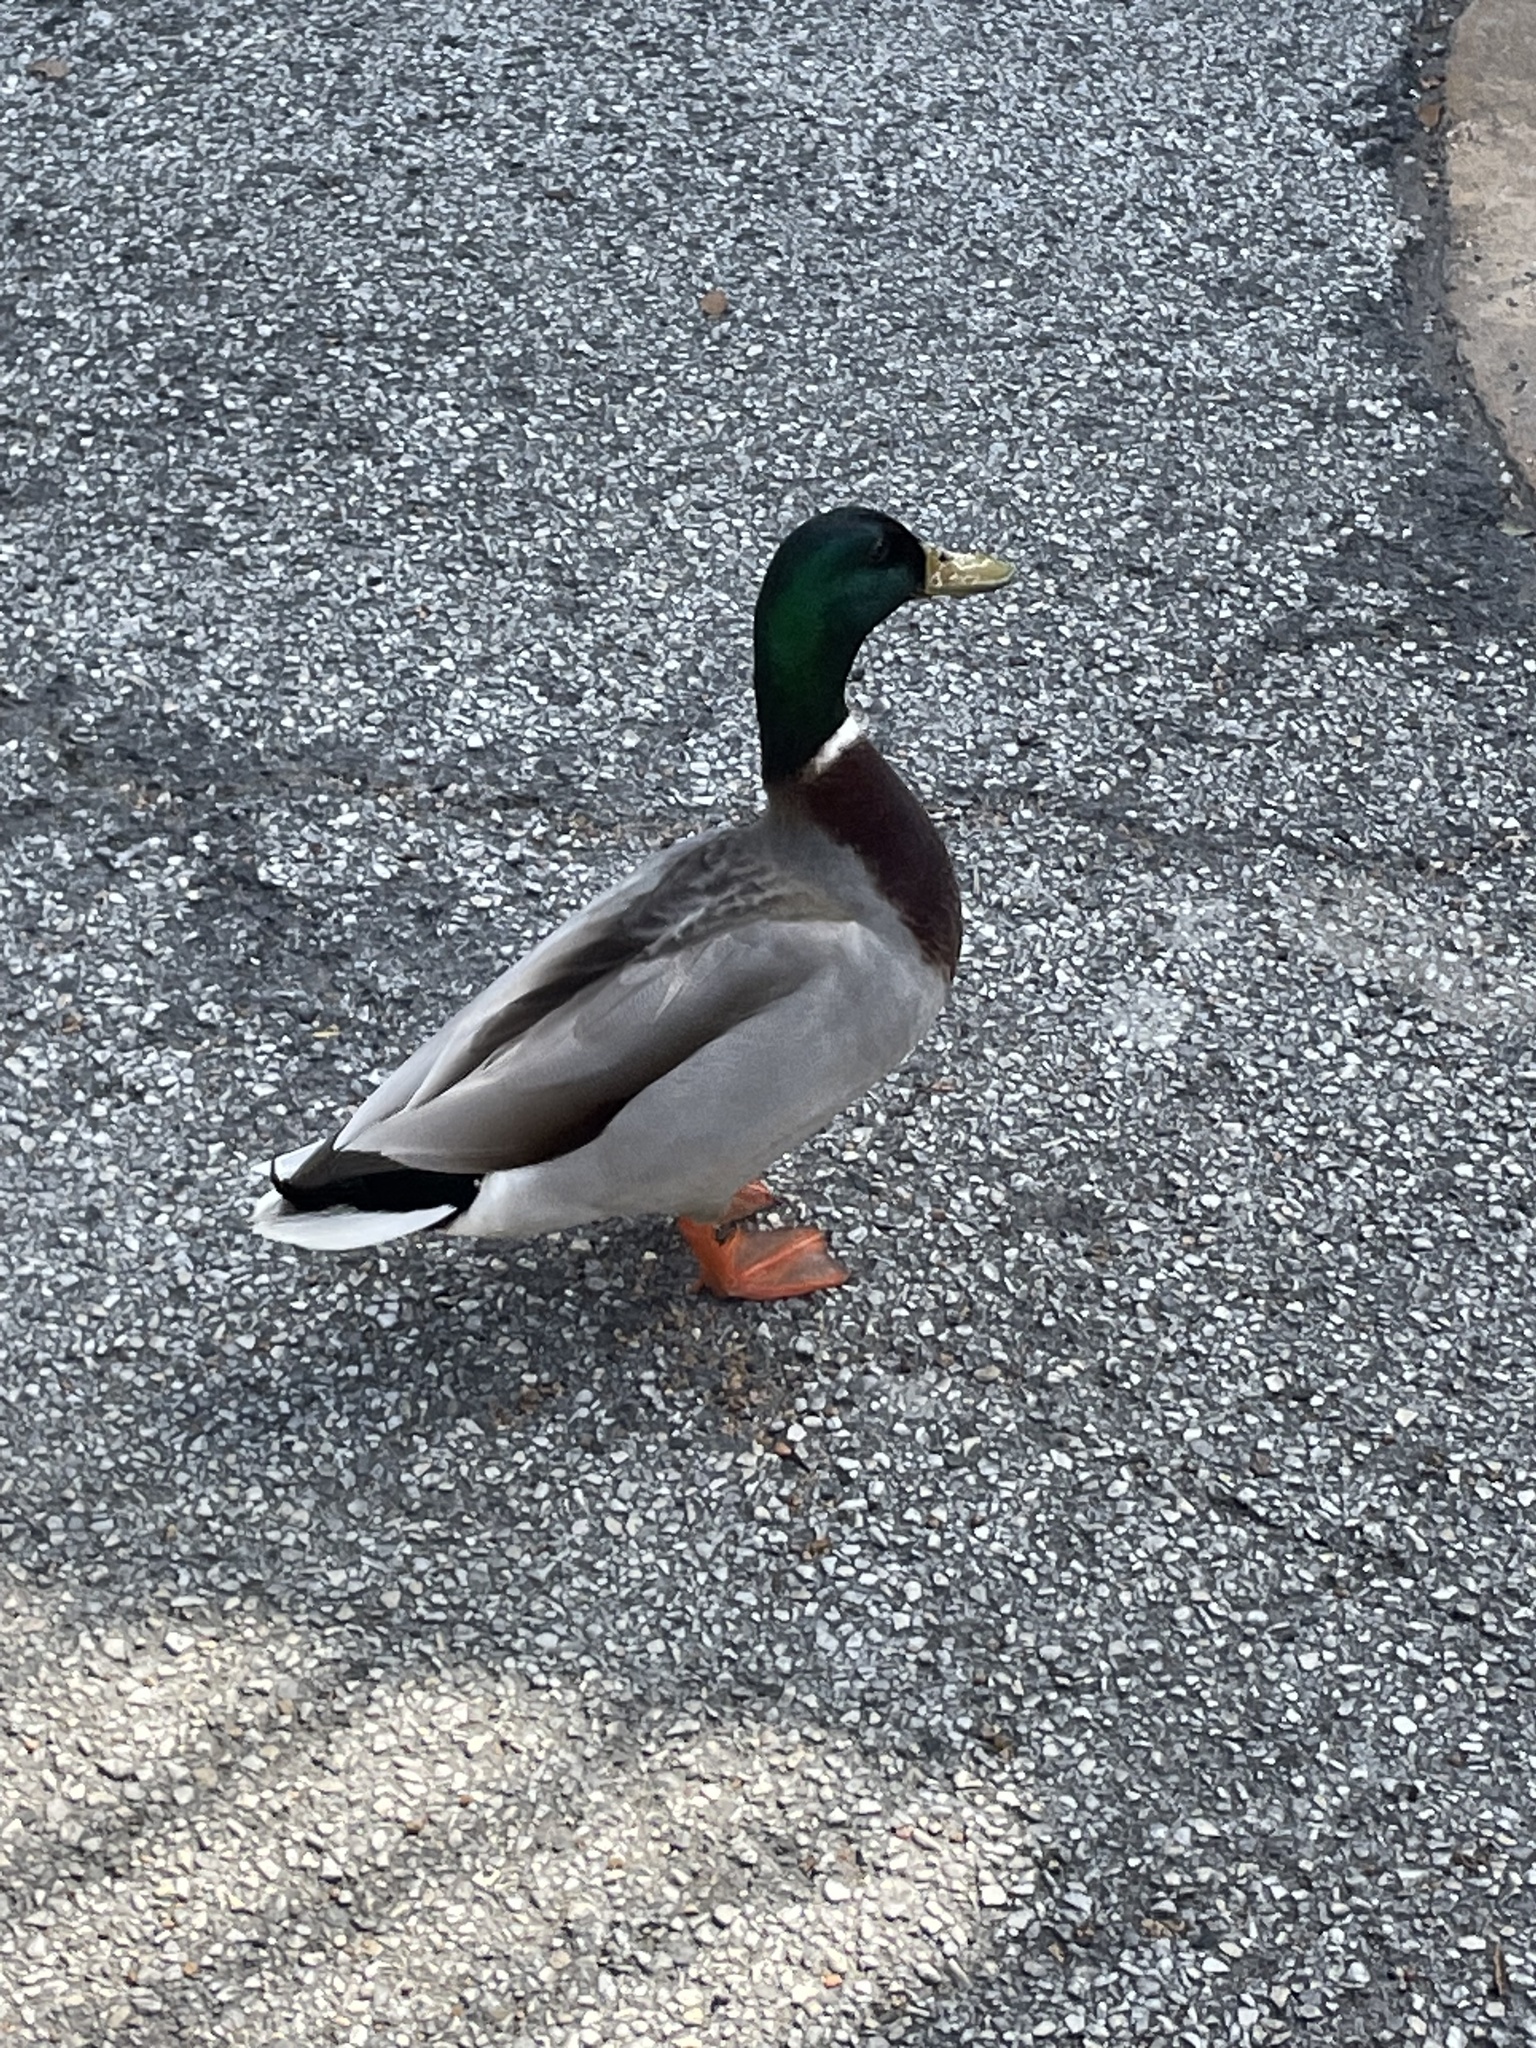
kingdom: Animalia
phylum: Chordata
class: Aves
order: Anseriformes
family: Anatidae
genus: Anas
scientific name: Anas platyrhynchos
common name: Mallard
